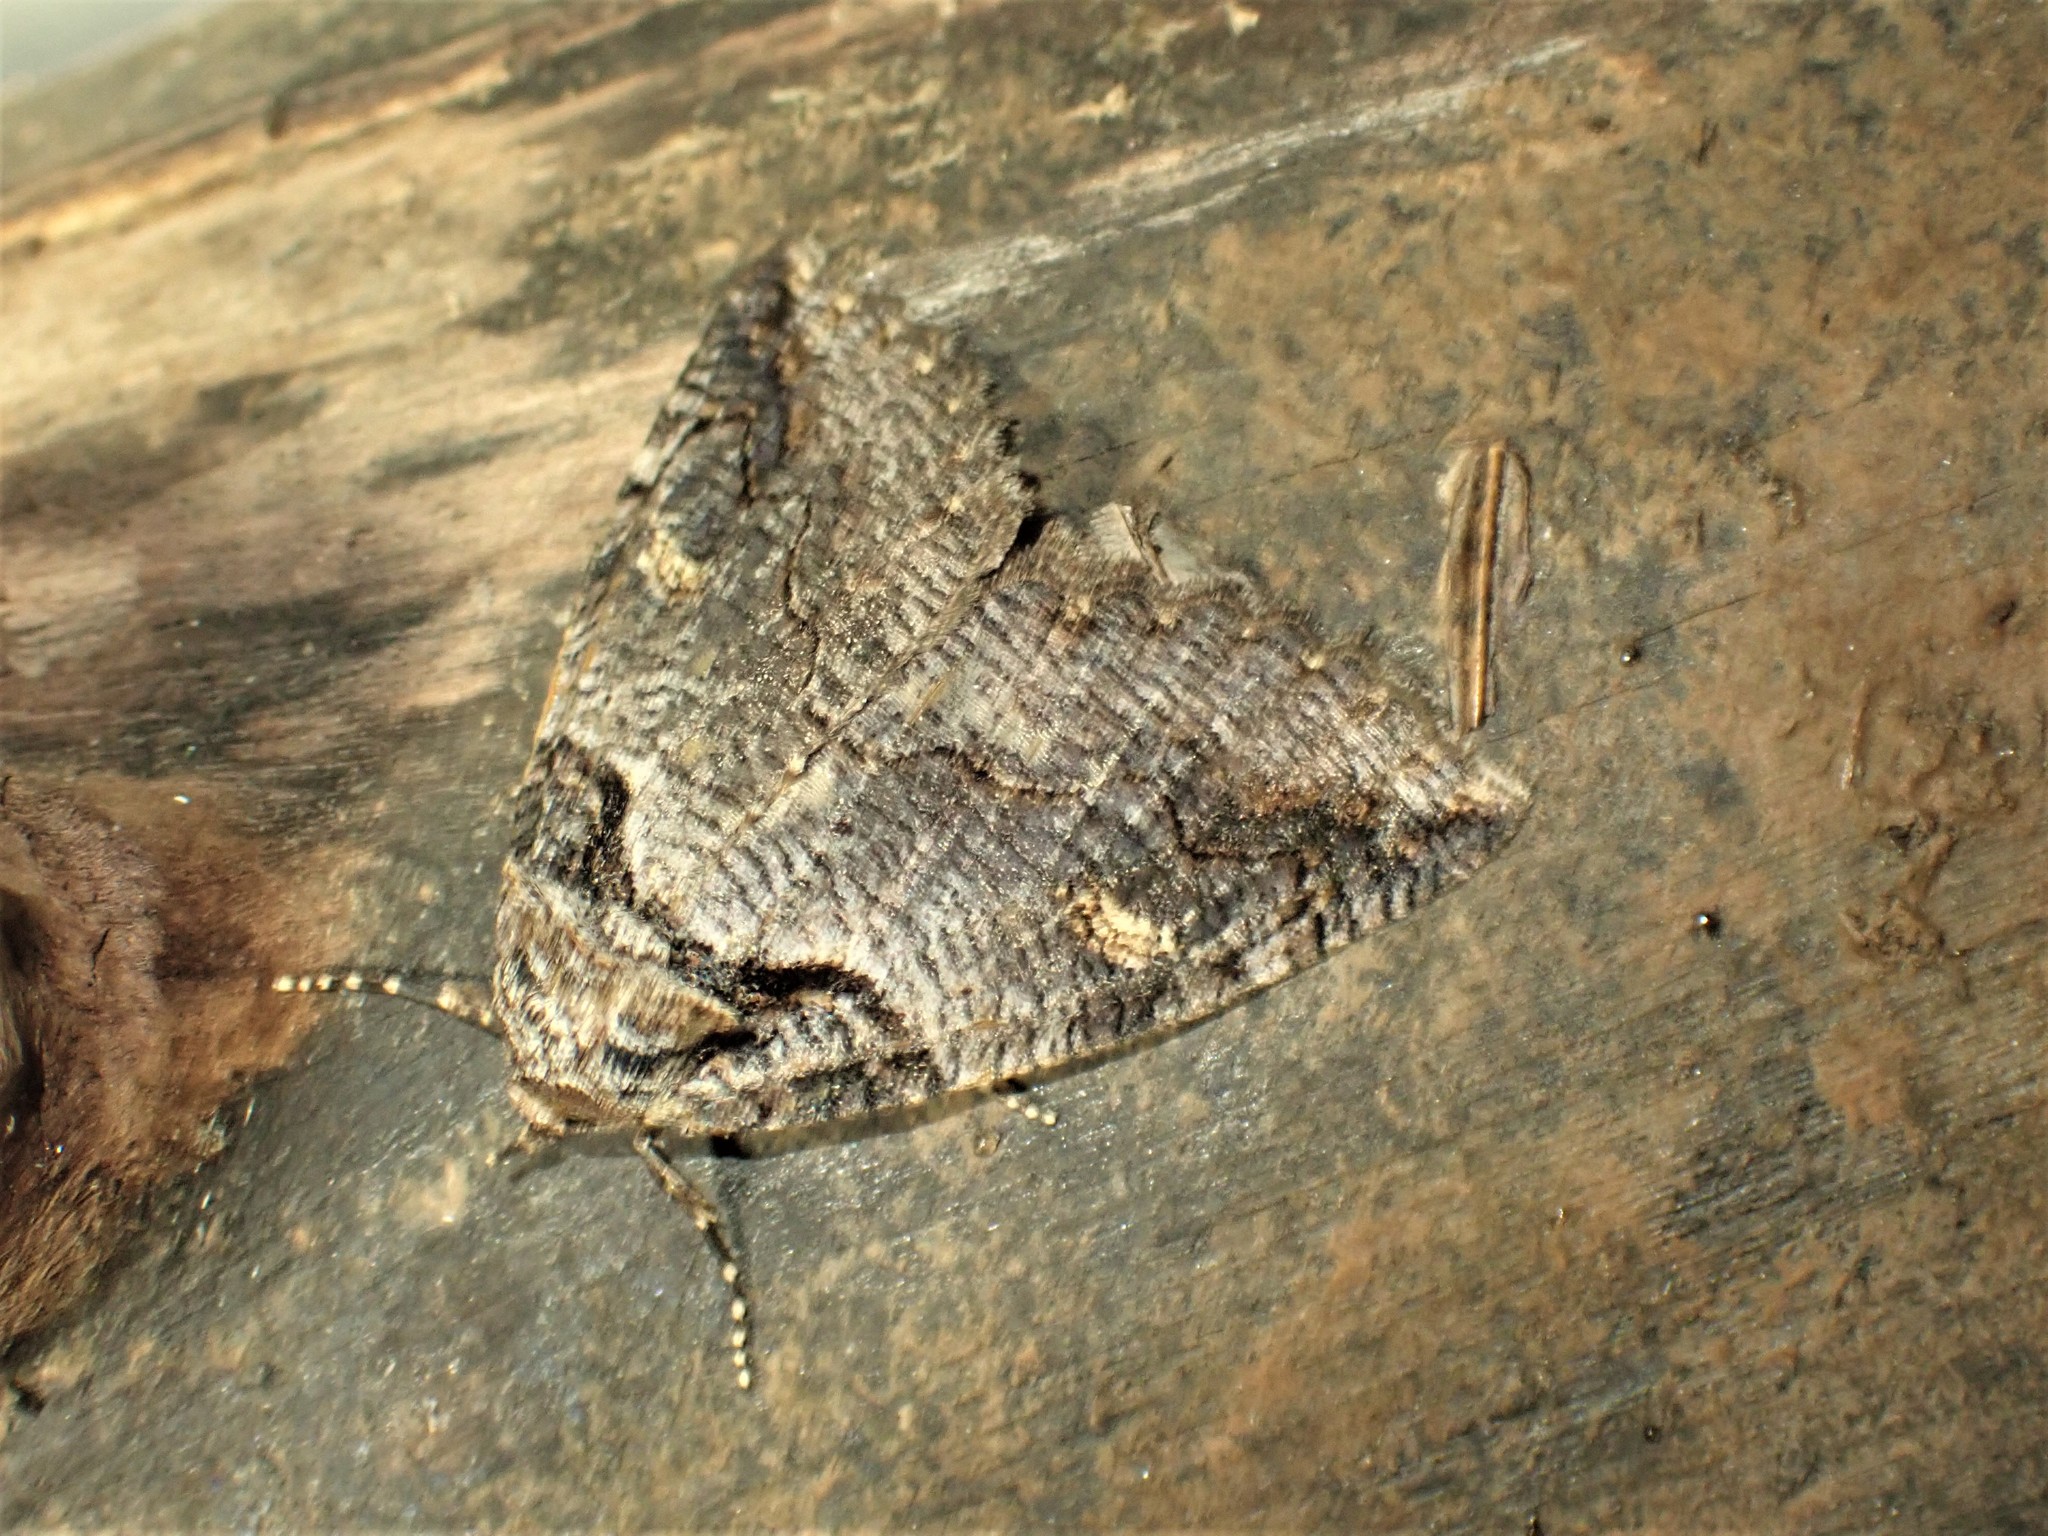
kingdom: Animalia
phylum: Arthropoda
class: Insecta
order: Lepidoptera
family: Erebidae
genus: Zale
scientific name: Zale intenta
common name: Intent zale moth
